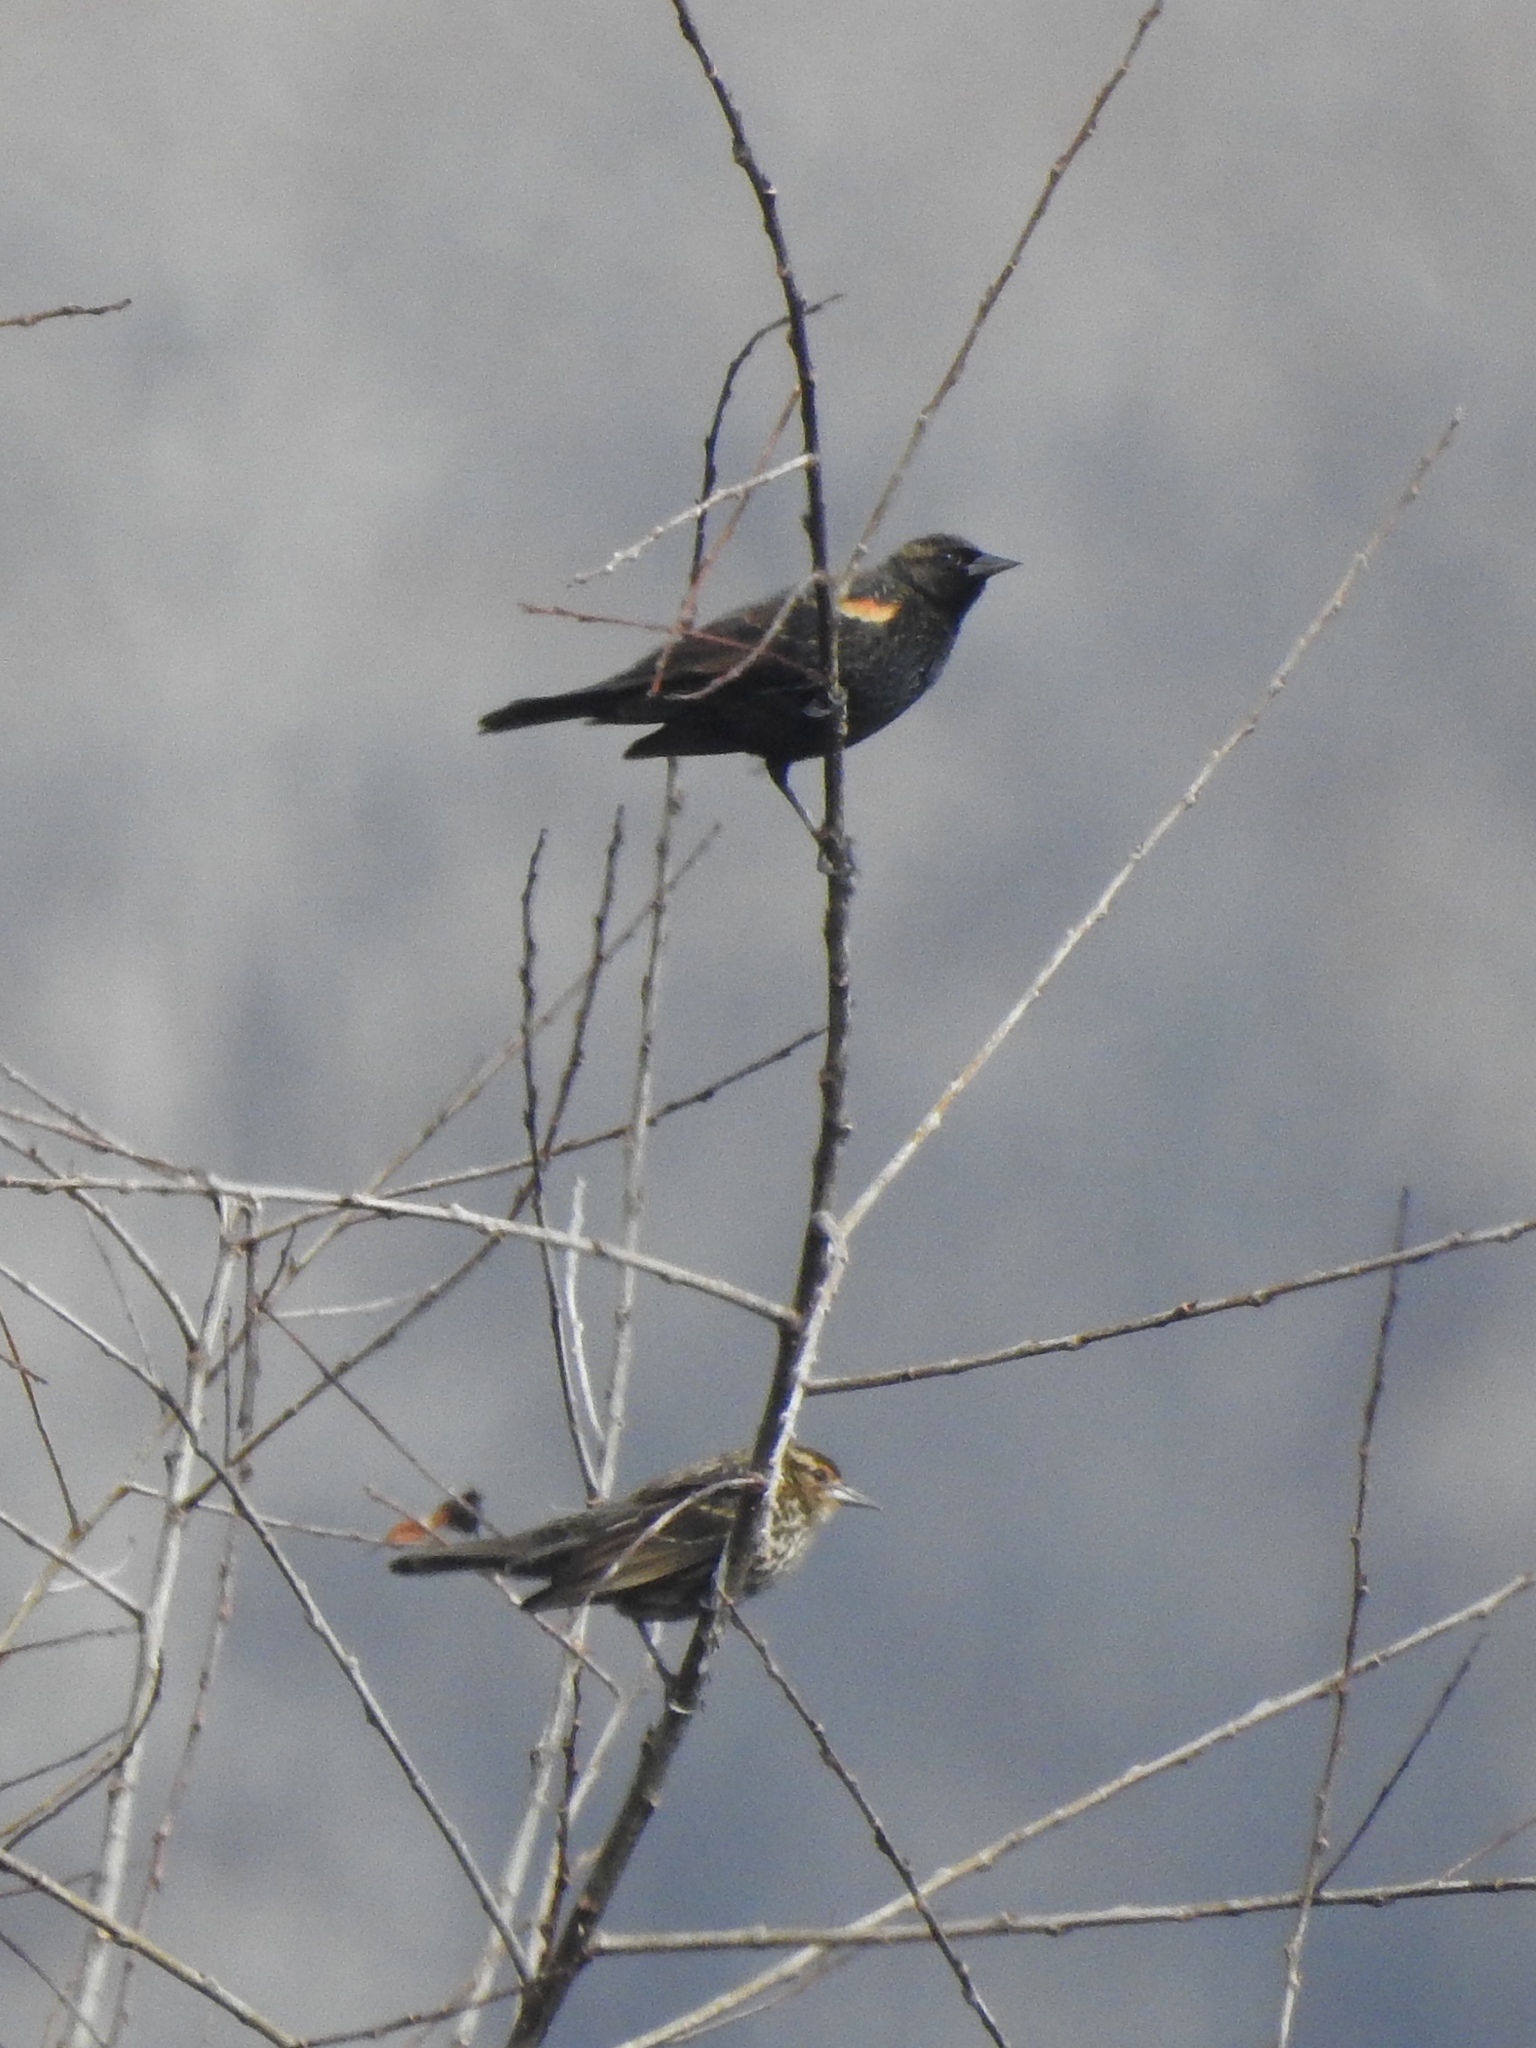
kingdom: Animalia
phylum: Chordata
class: Aves
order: Passeriformes
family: Icteridae
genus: Agelaius
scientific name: Agelaius phoeniceus
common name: Red-winged blackbird
